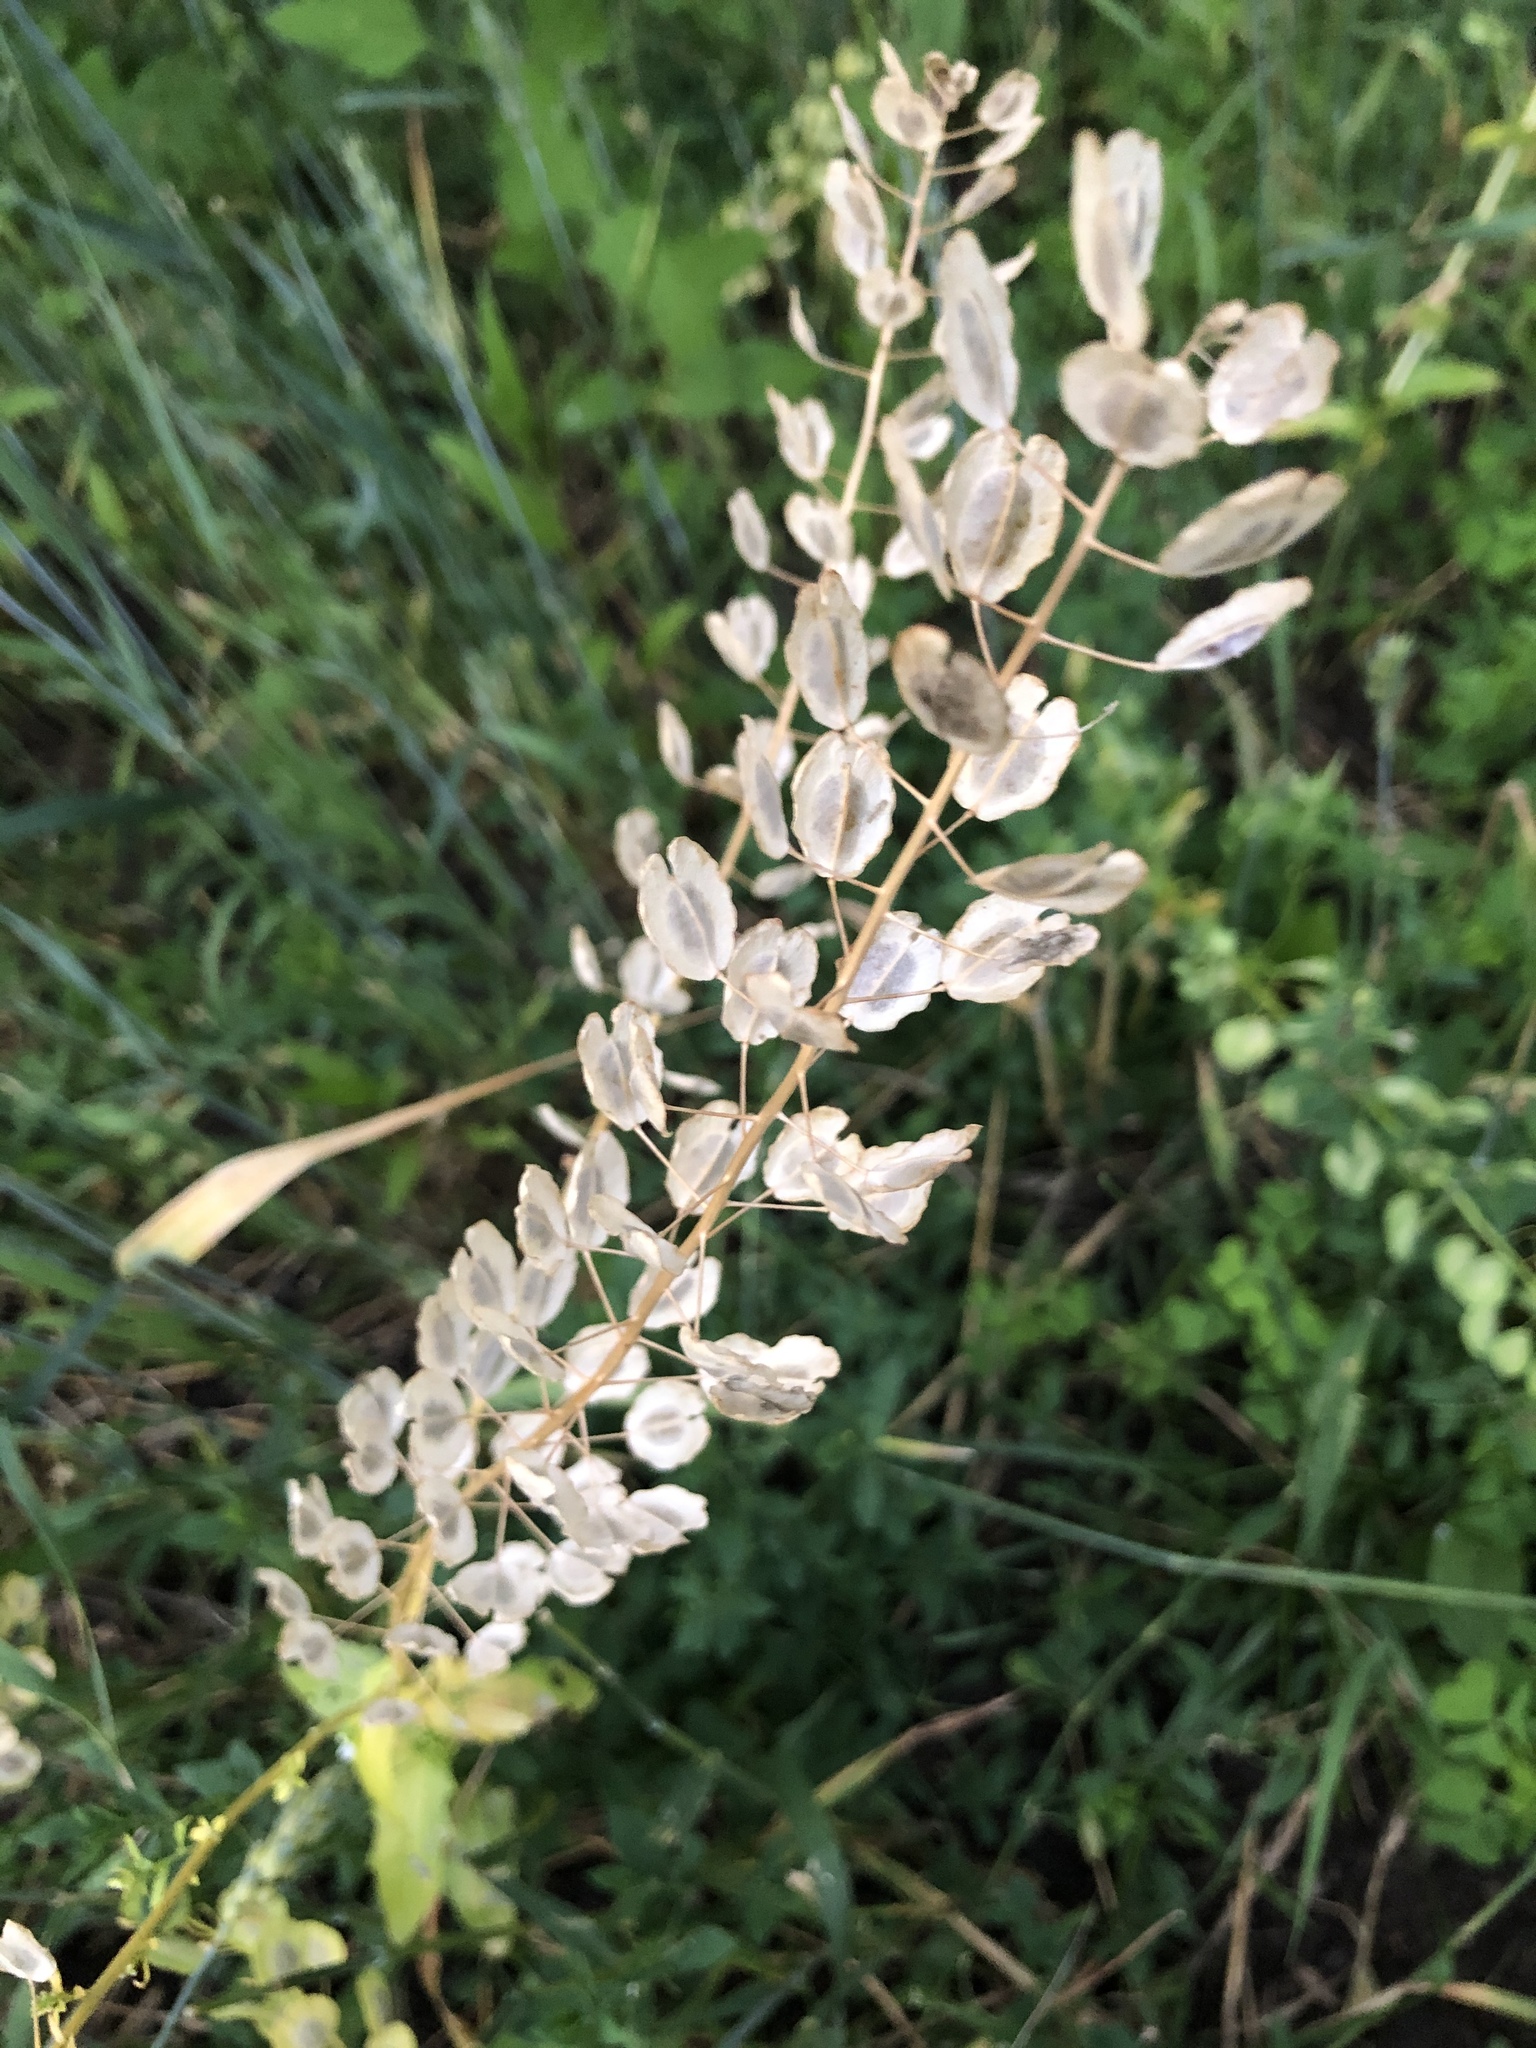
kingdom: Plantae
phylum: Tracheophyta
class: Magnoliopsida
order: Brassicales
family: Brassicaceae
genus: Thlaspi
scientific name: Thlaspi arvense
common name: Field pennycress
